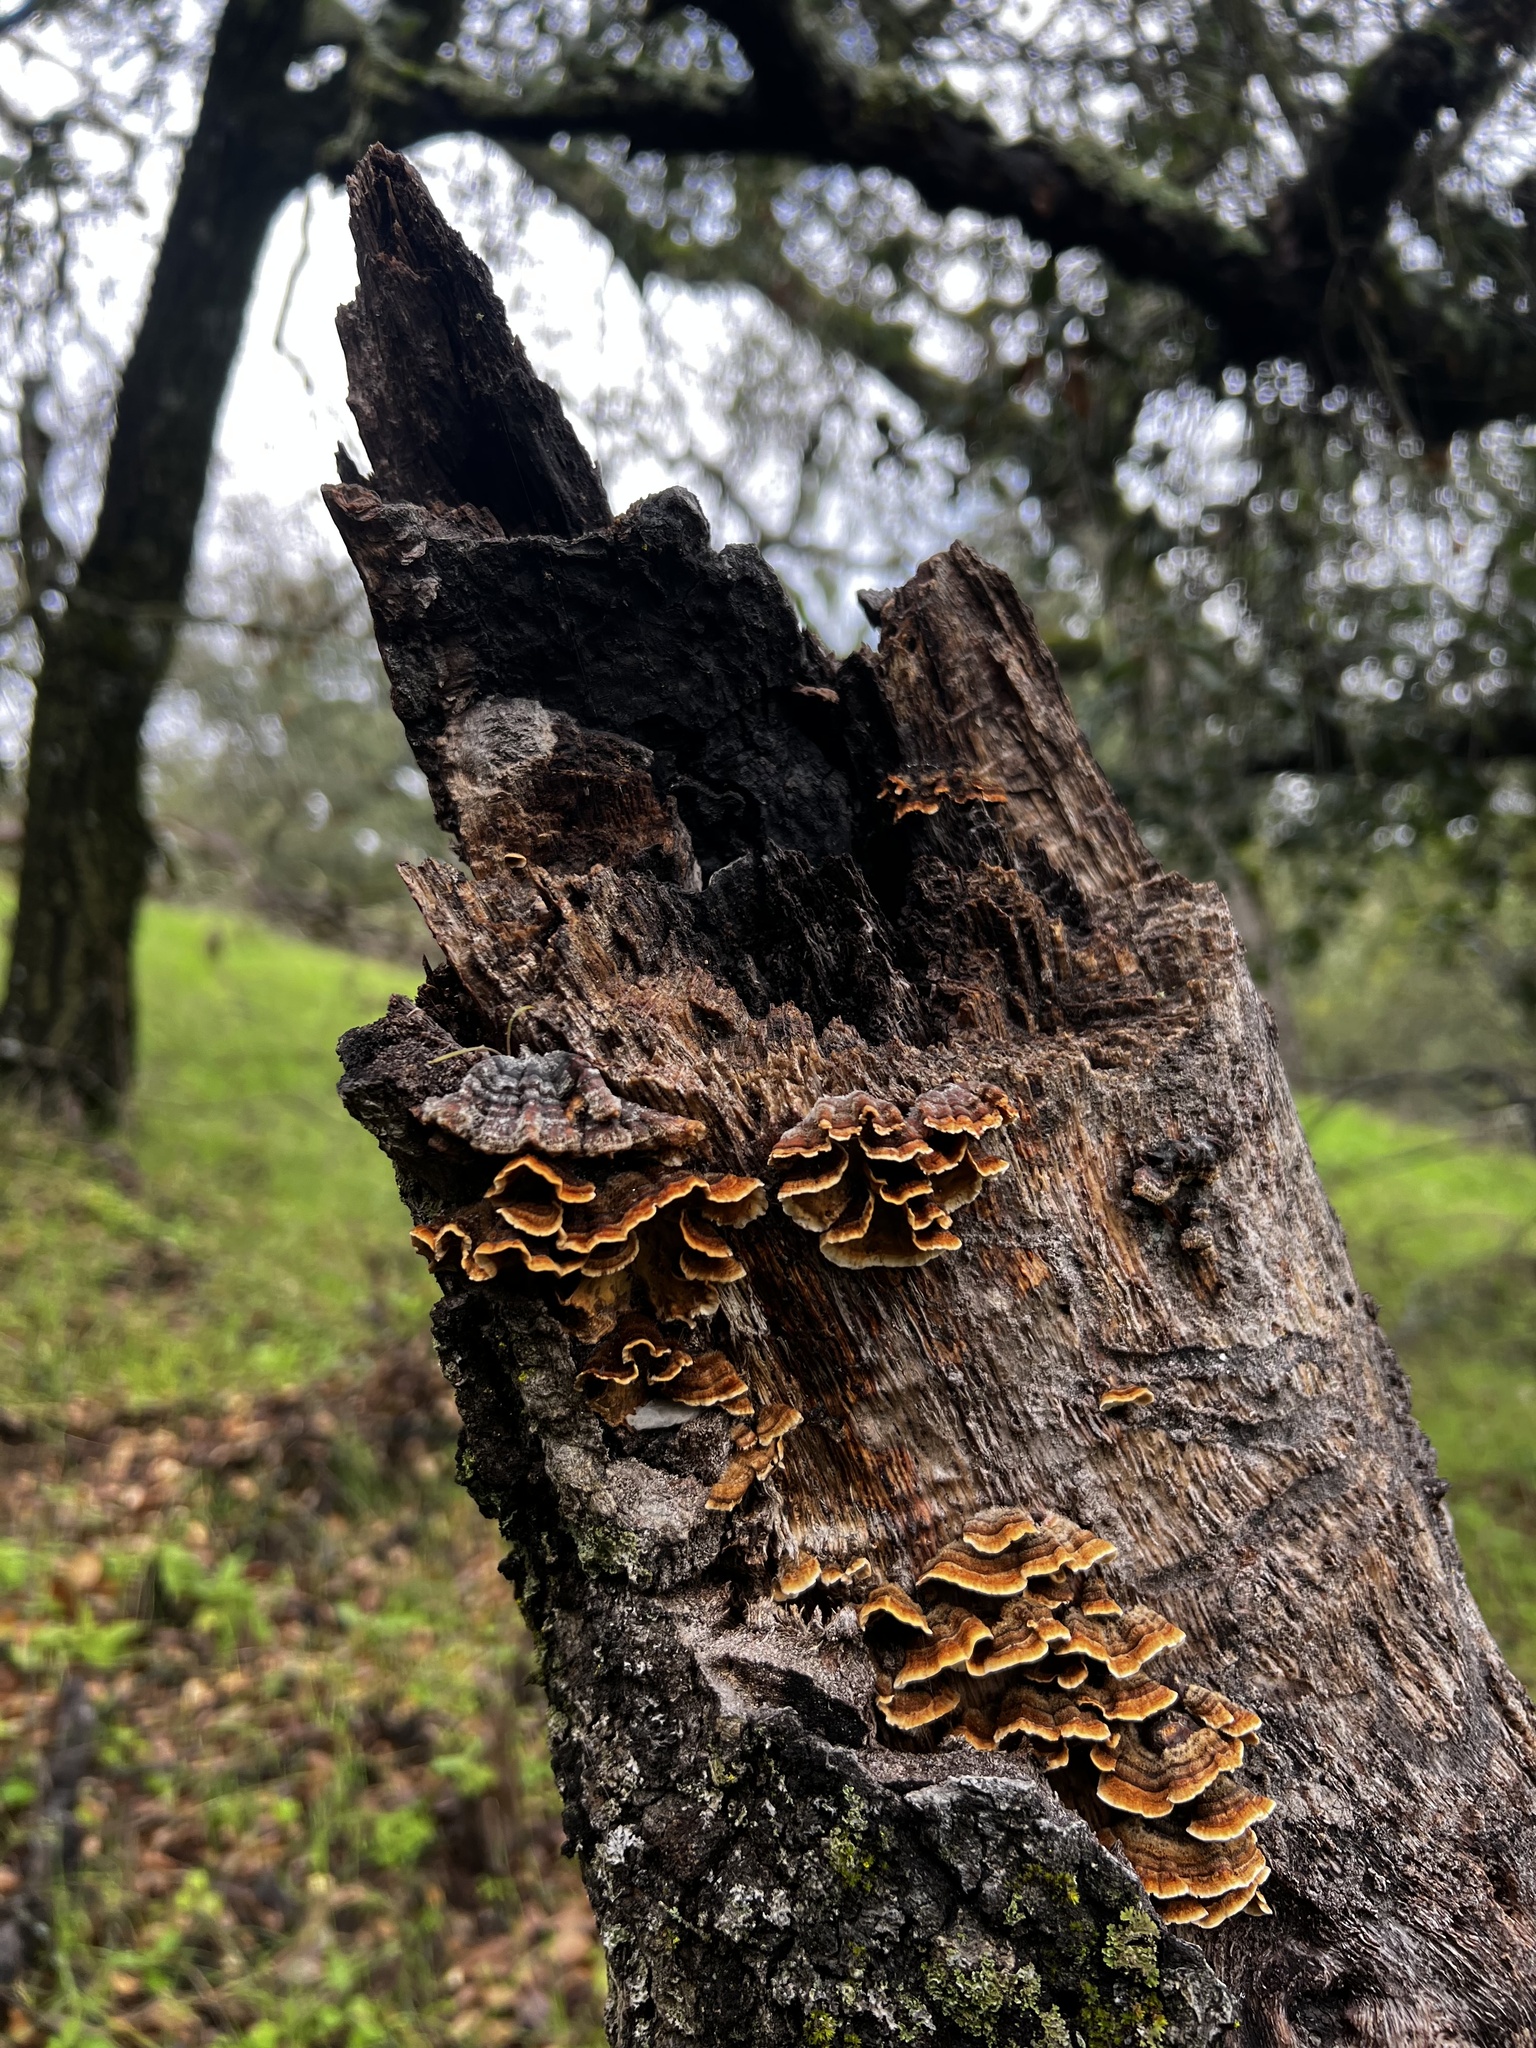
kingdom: Fungi
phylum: Basidiomycota
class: Agaricomycetes
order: Russulales
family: Stereaceae
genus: Stereum
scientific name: Stereum hirsutum
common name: Hairy curtain crust
